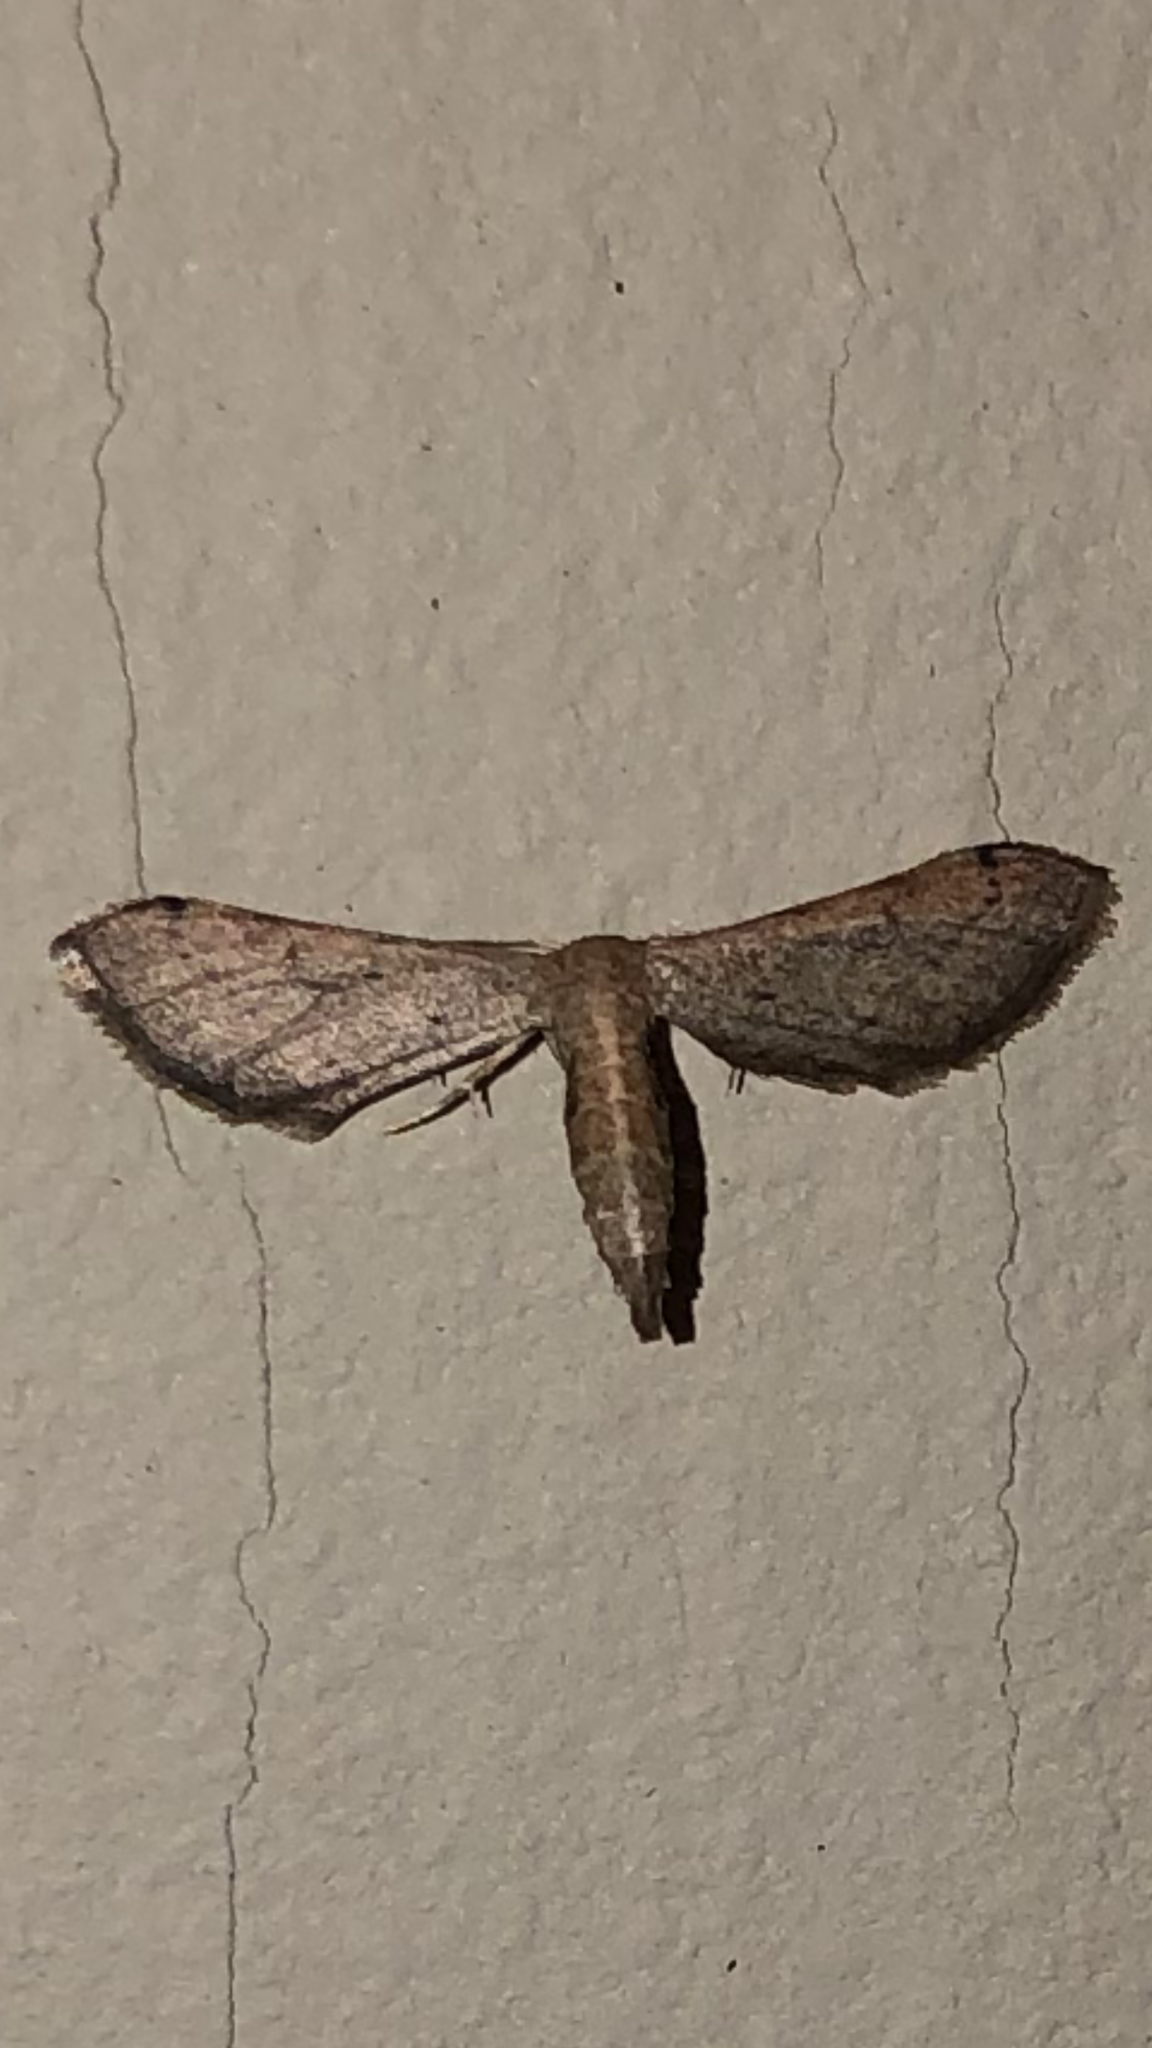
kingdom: Animalia
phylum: Arthropoda
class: Insecta
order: Lepidoptera
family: Geometridae
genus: Euacidalia
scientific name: Euacidalia sericearia
